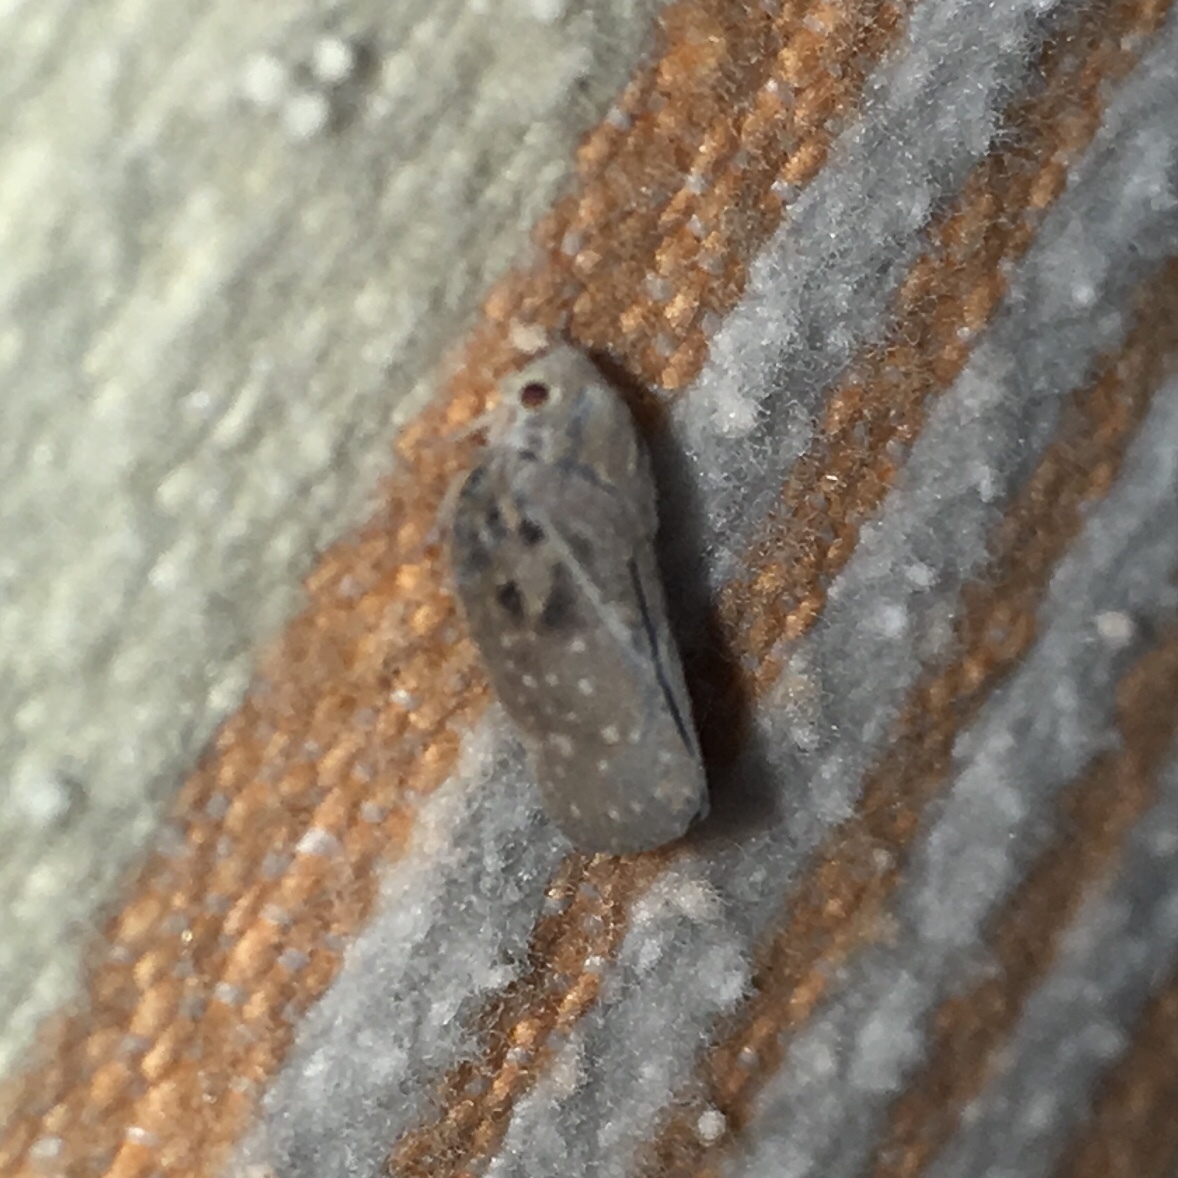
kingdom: Animalia
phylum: Arthropoda
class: Insecta
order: Hemiptera
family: Flatidae
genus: Metcalfa
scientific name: Metcalfa pruinosa
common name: Citrus flatid planthopper
